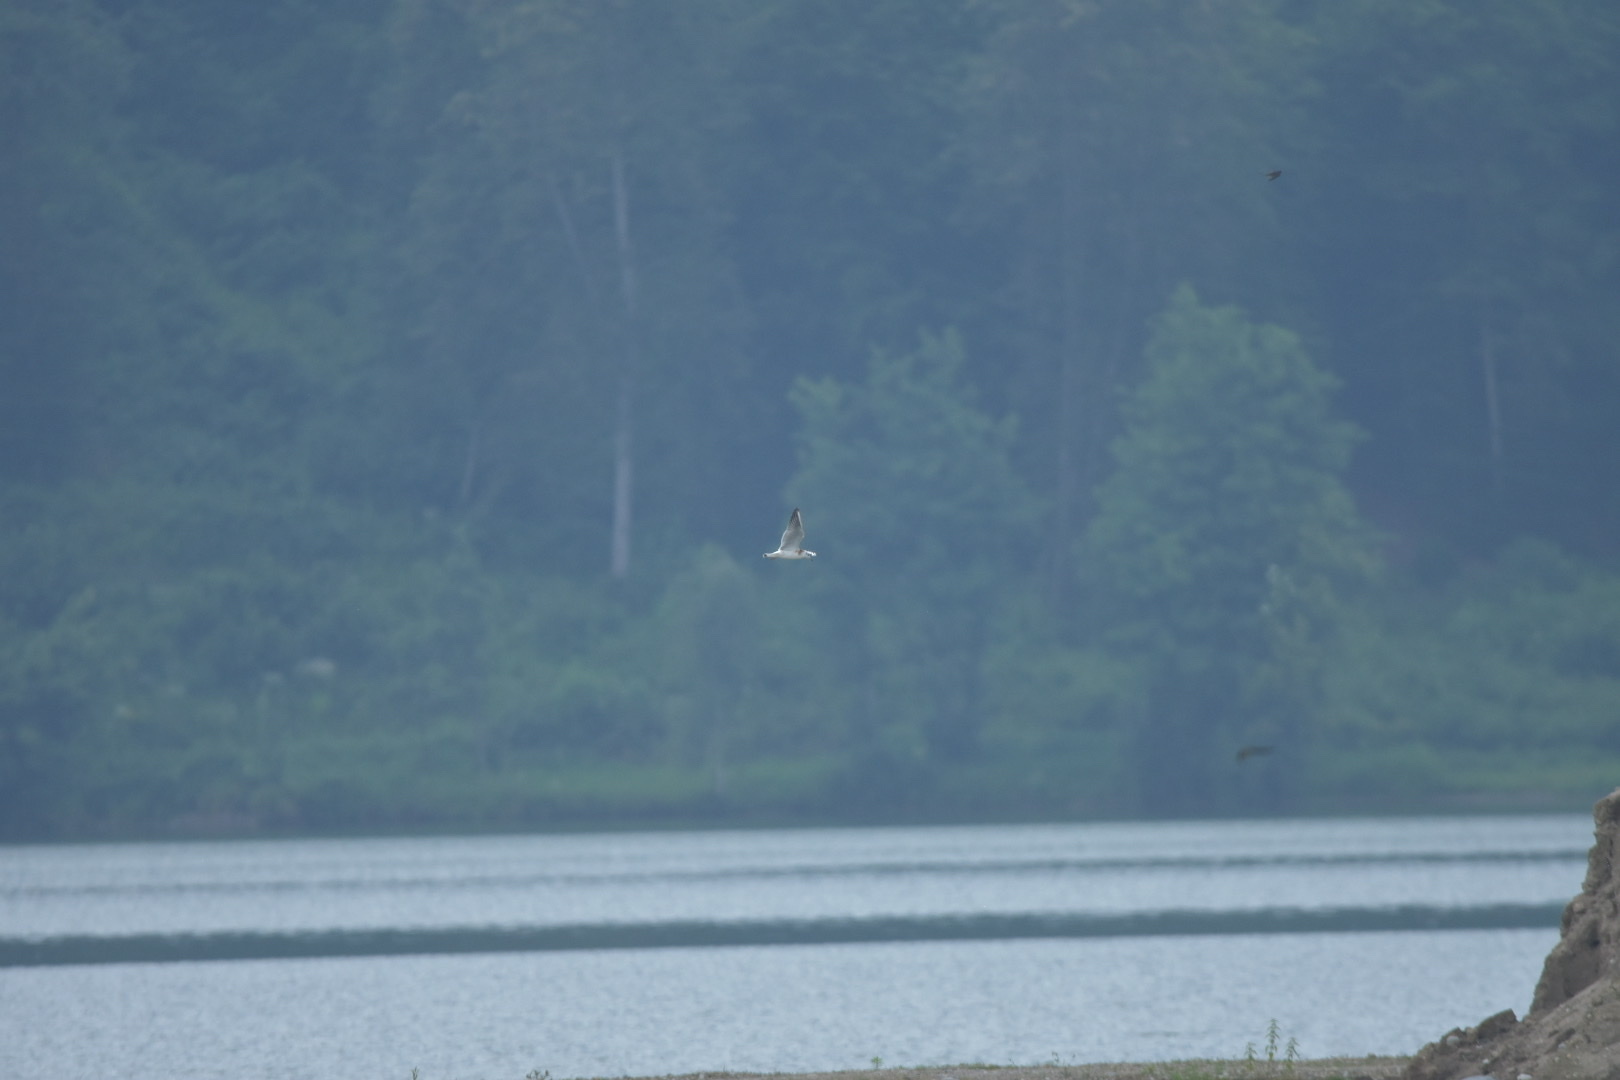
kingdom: Animalia
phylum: Chordata
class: Aves
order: Charadriiformes
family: Laridae
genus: Chroicocephalus
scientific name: Chroicocephalus ridibundus
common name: Black-headed gull
